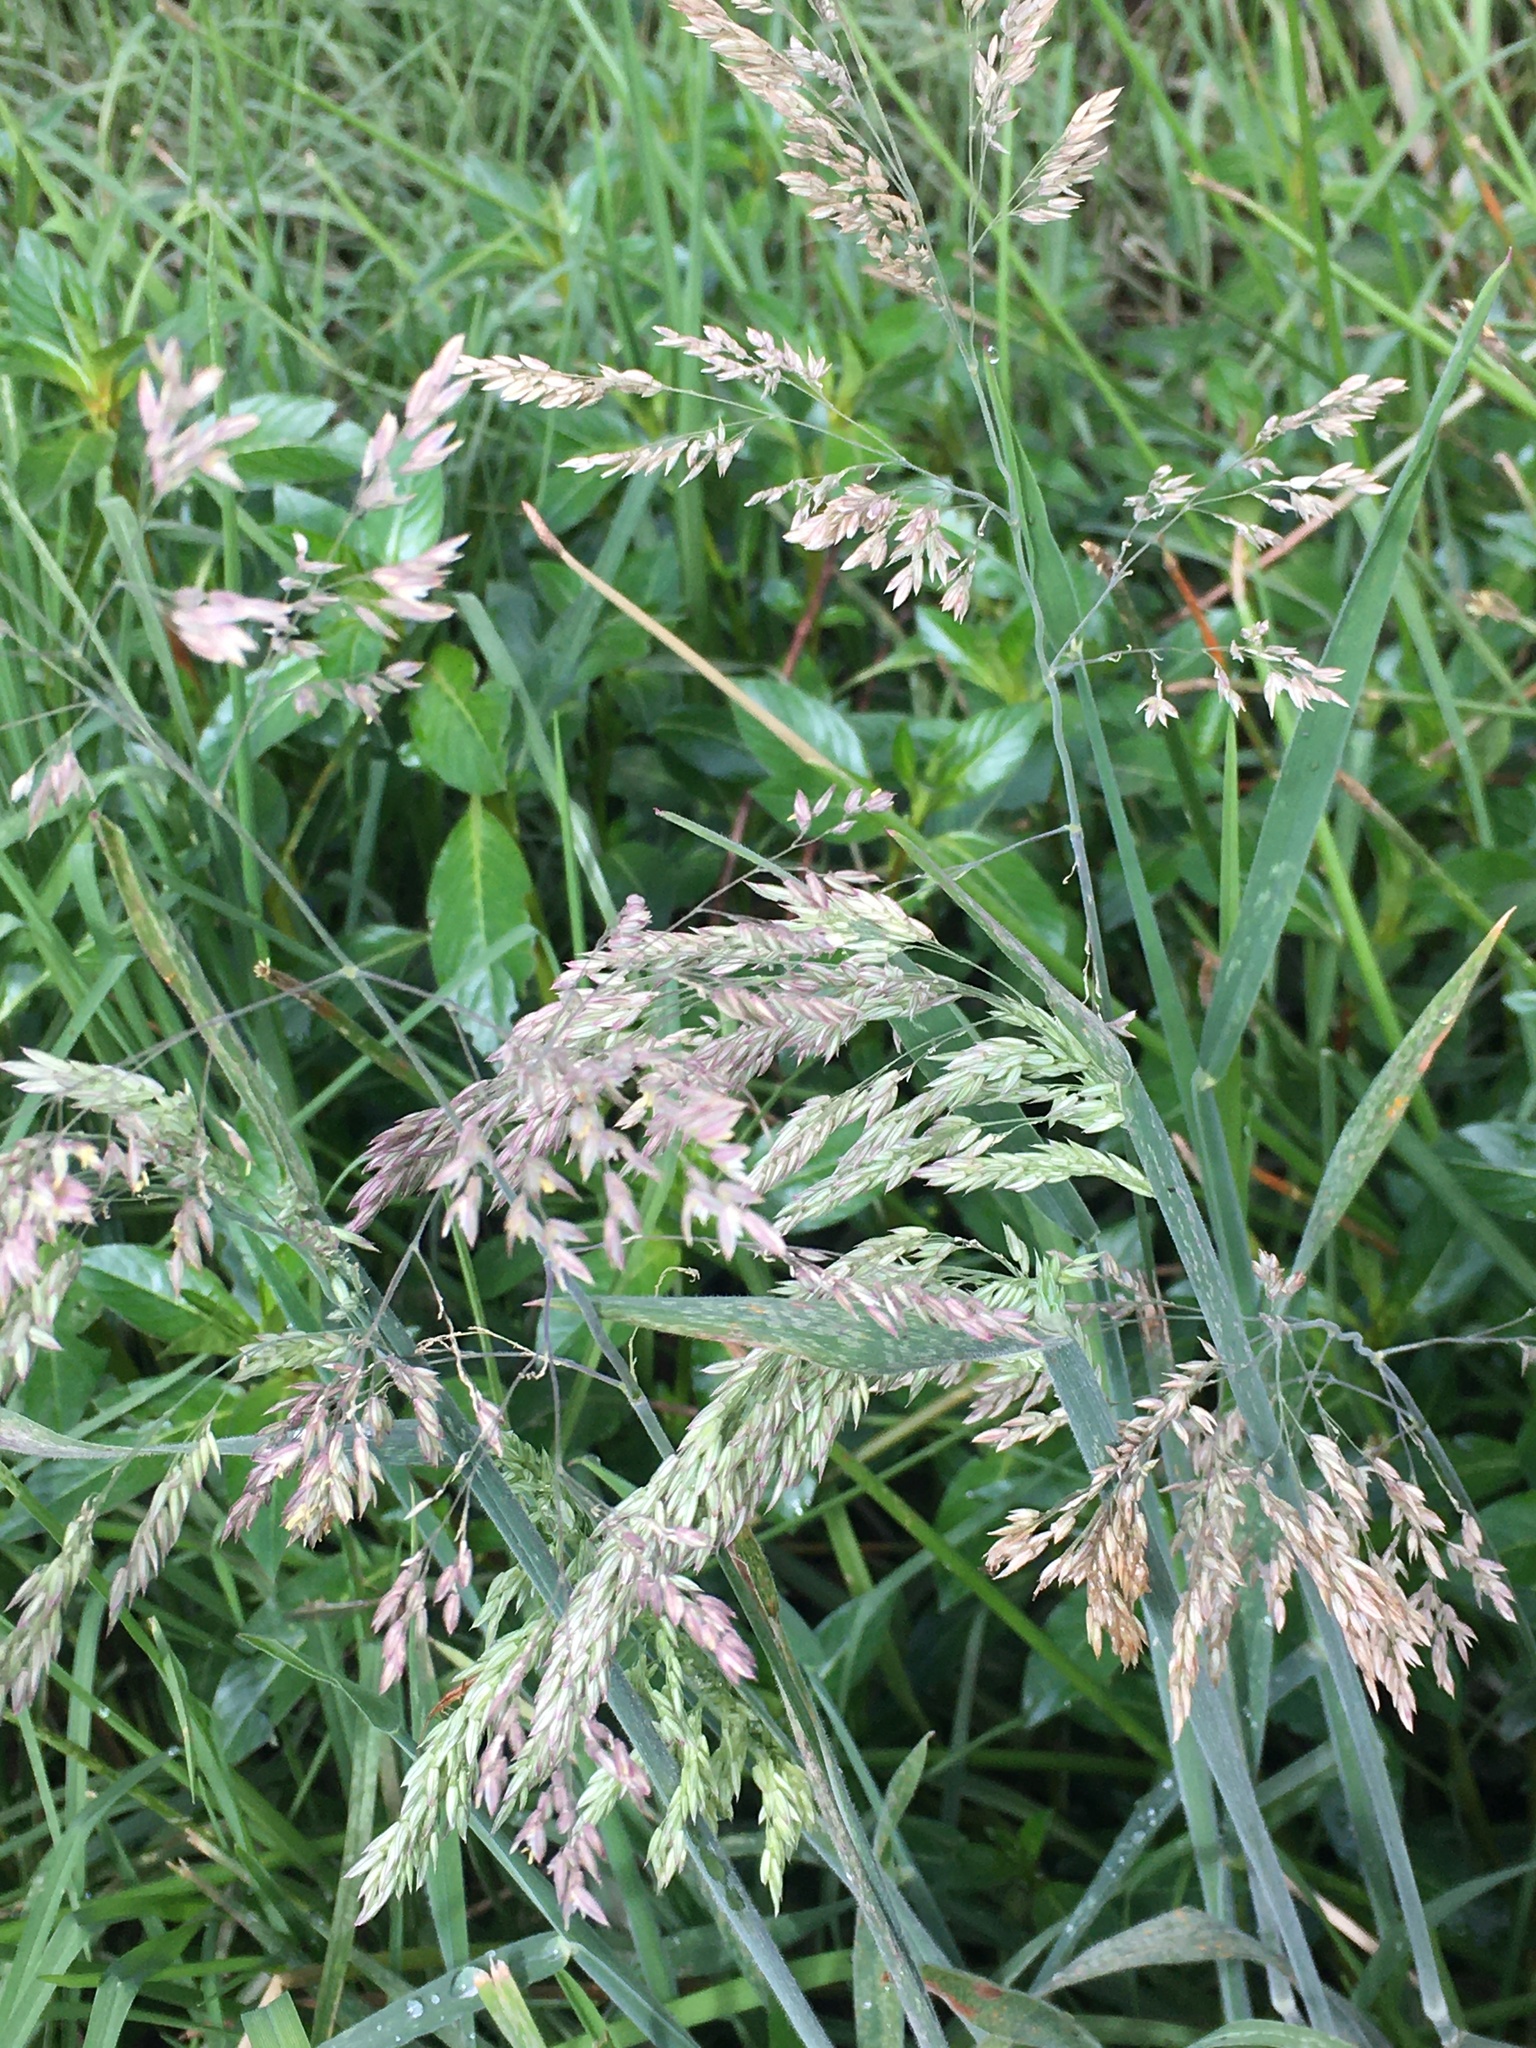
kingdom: Plantae
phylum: Tracheophyta
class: Liliopsida
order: Poales
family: Poaceae
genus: Holcus
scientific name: Holcus lanatus
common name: Yorkshire-fog
